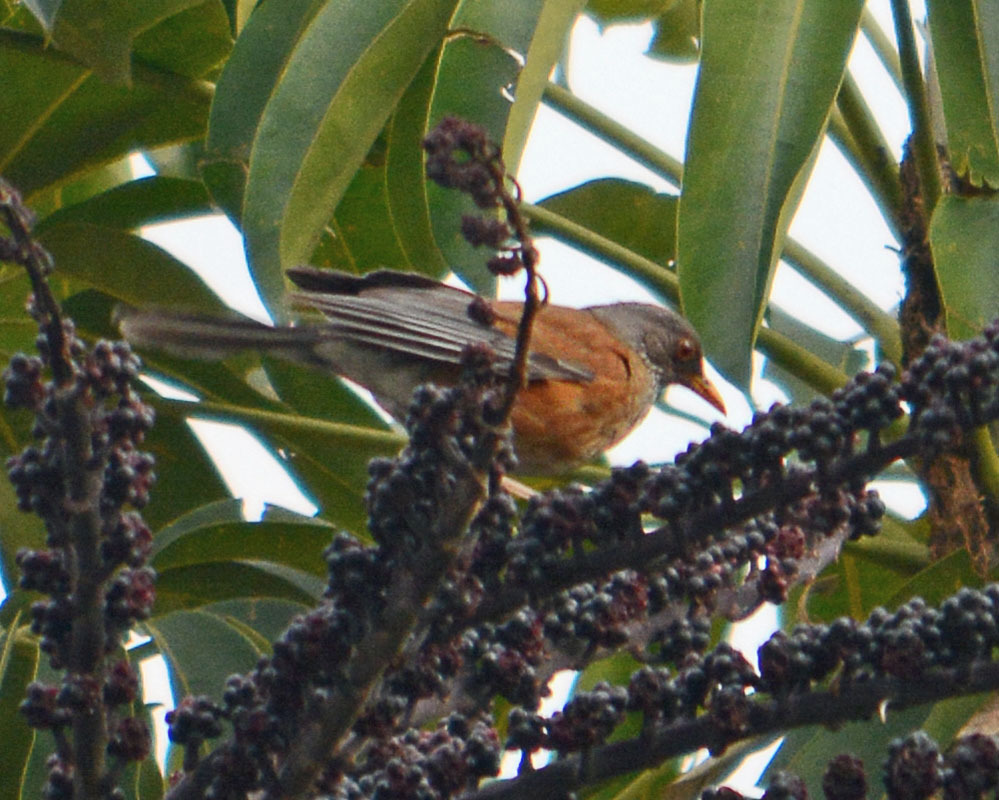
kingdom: Animalia
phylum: Chordata
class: Aves
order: Passeriformes
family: Turdidae
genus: Turdus
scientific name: Turdus rufopalliatus
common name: Rufous-backed robin
